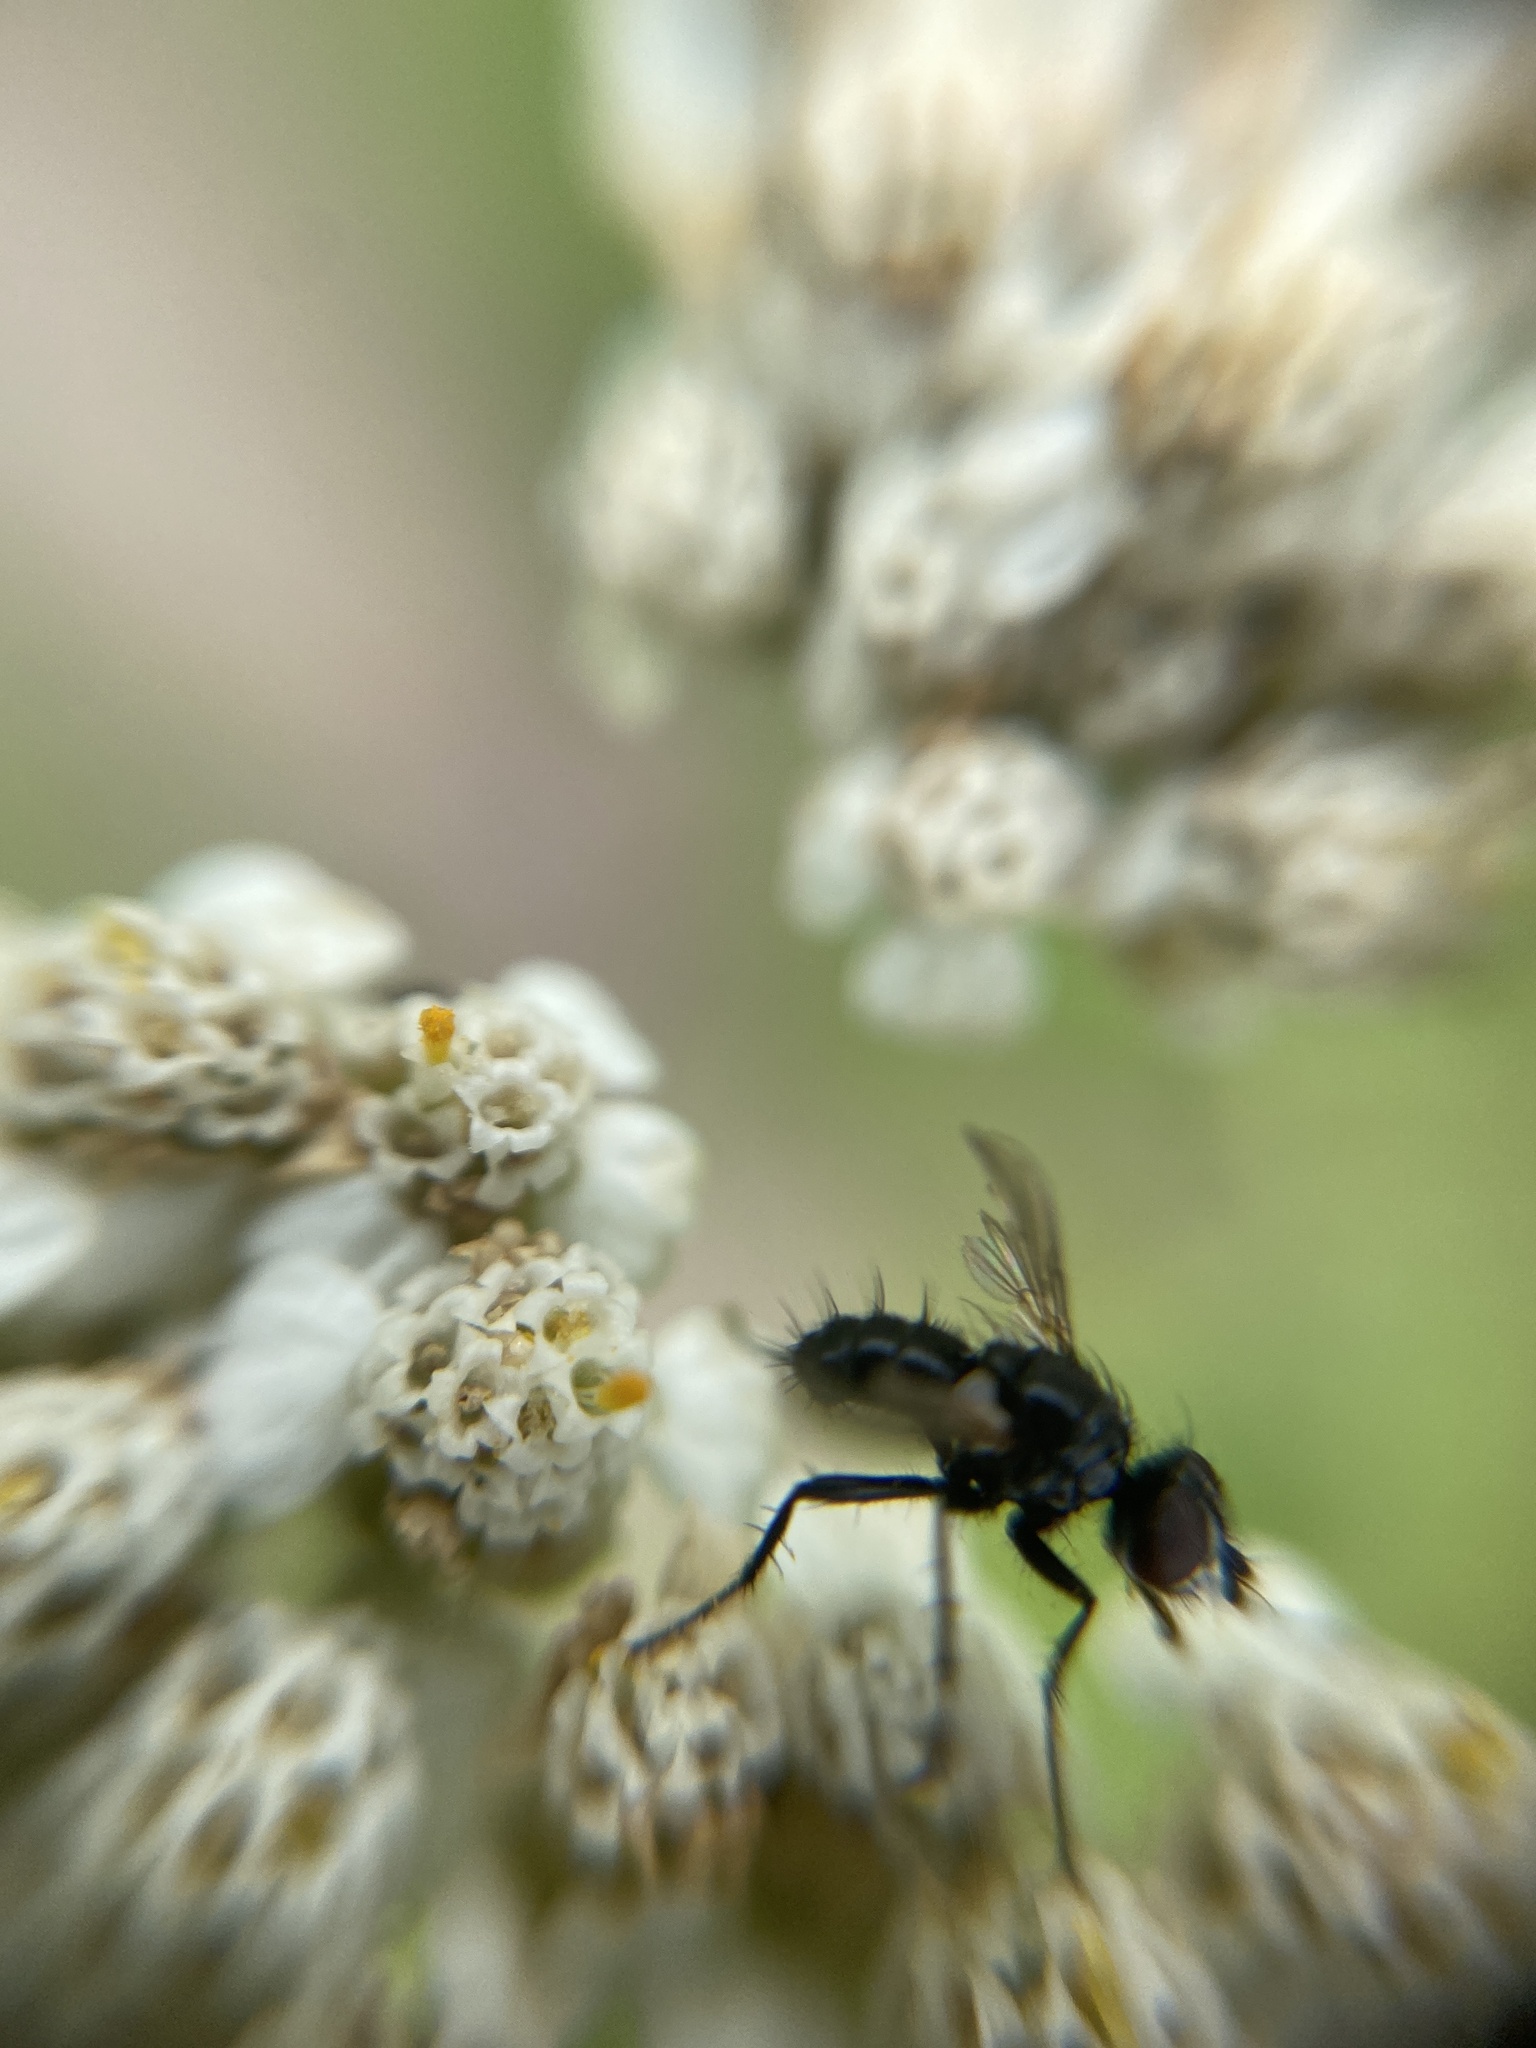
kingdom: Animalia
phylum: Arthropoda
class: Insecta
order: Diptera
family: Tachinidae
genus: Phania
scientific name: Phania funesta
